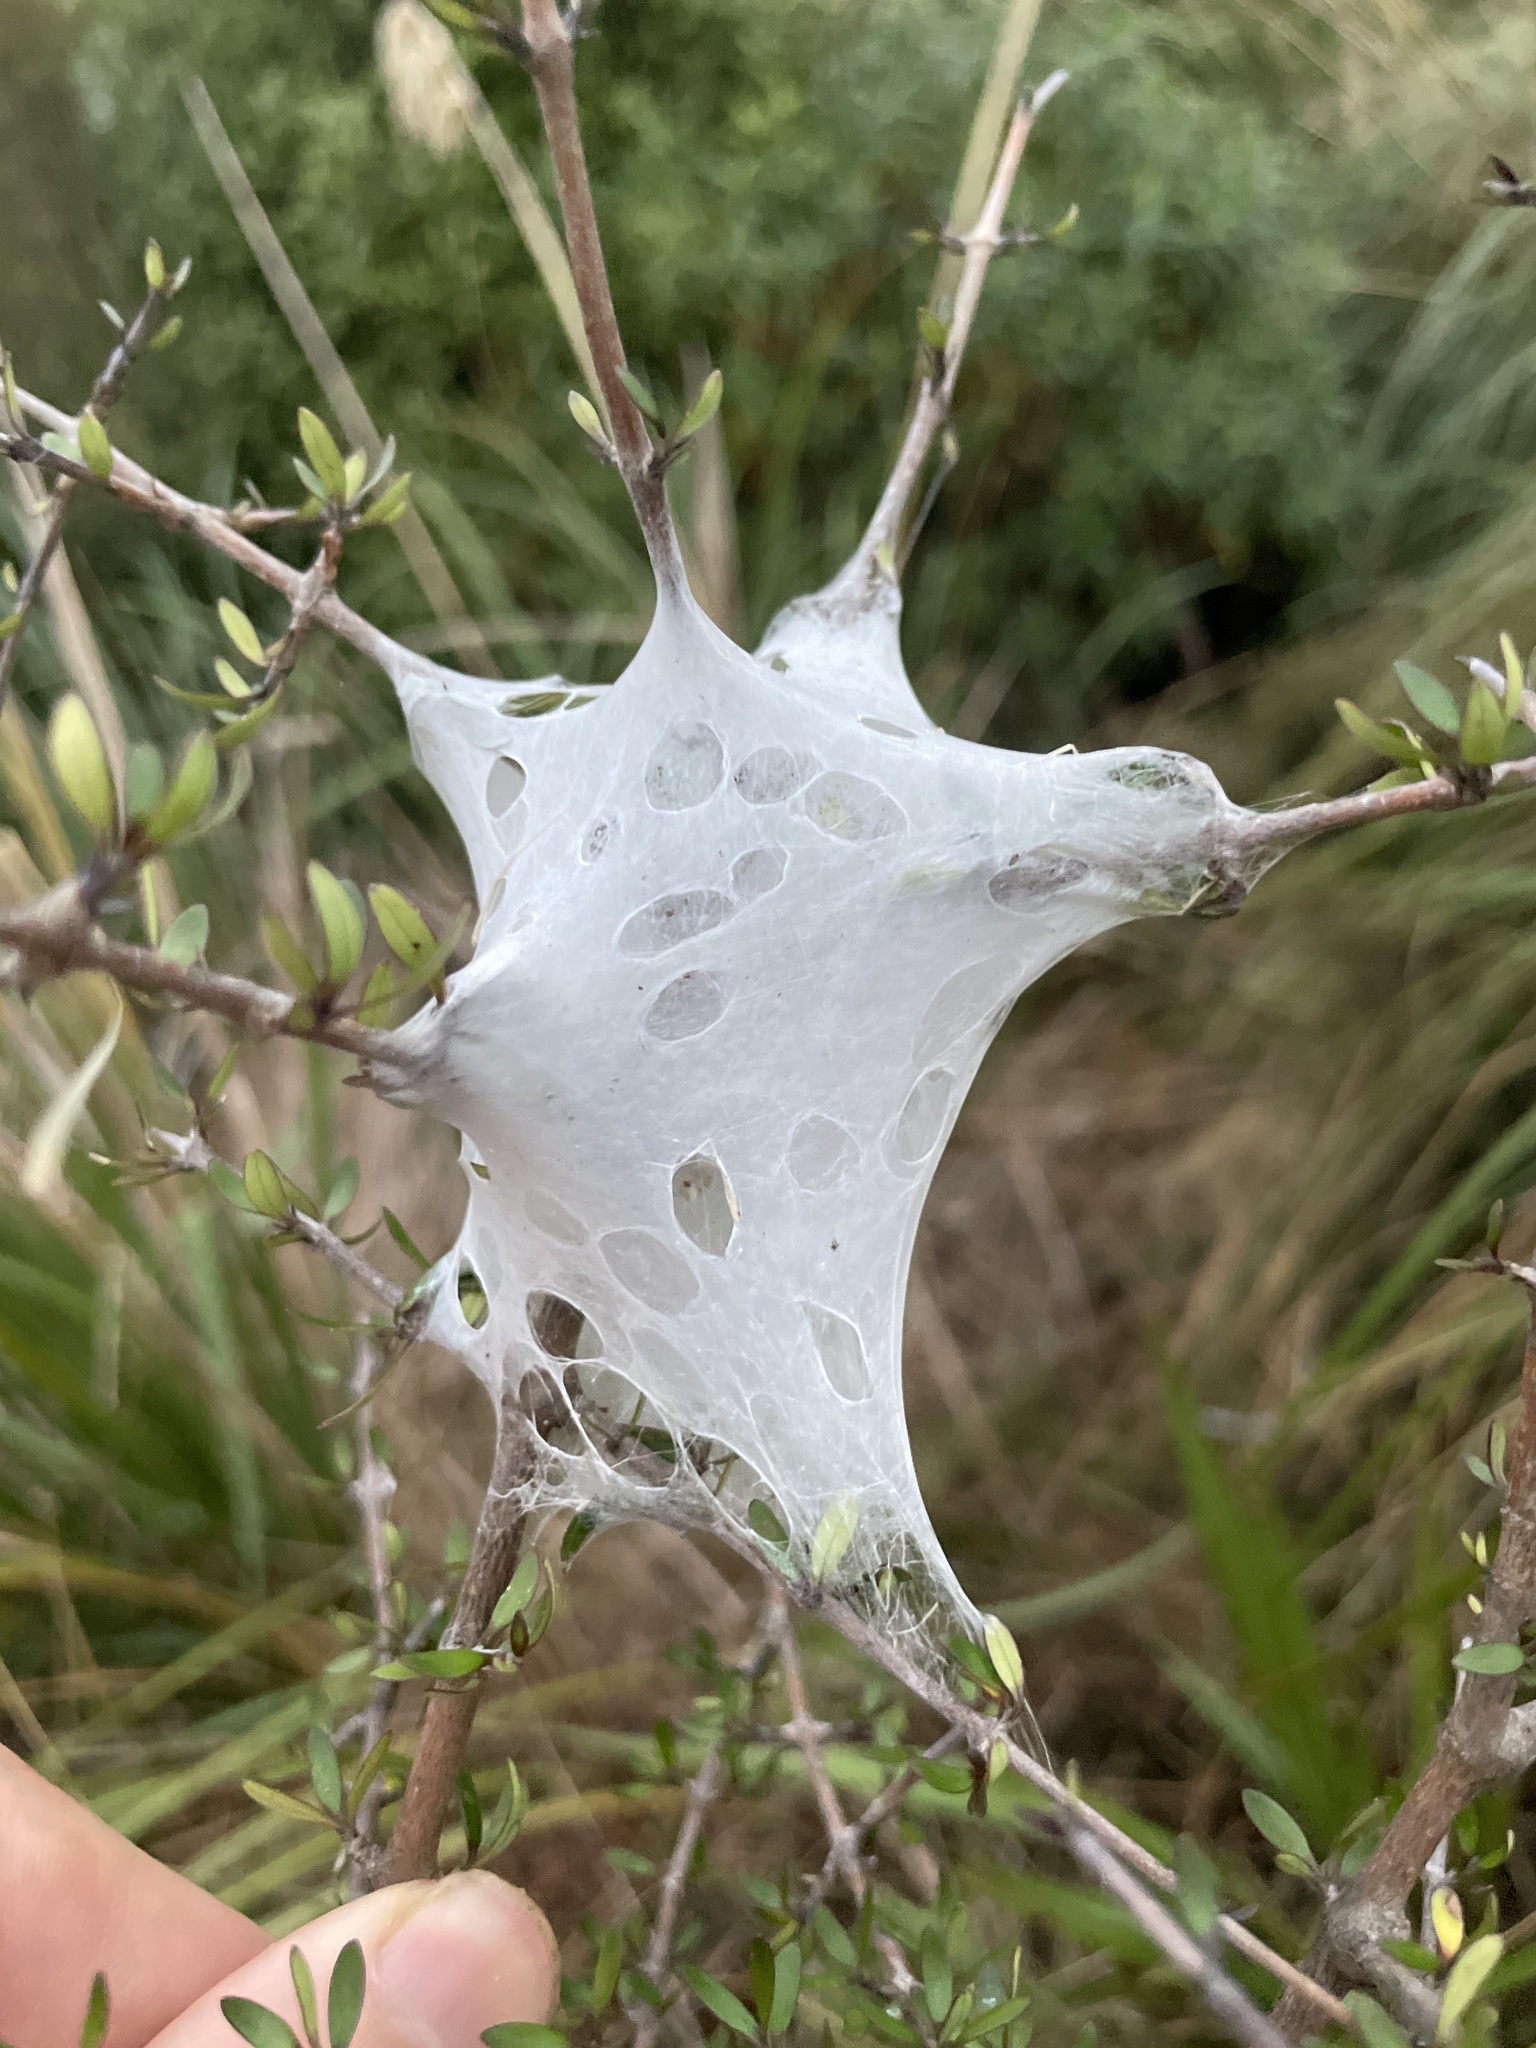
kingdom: Animalia
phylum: Arthropoda
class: Arachnida
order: Araneae
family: Pisauridae
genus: Dolomedes
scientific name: Dolomedes minor
